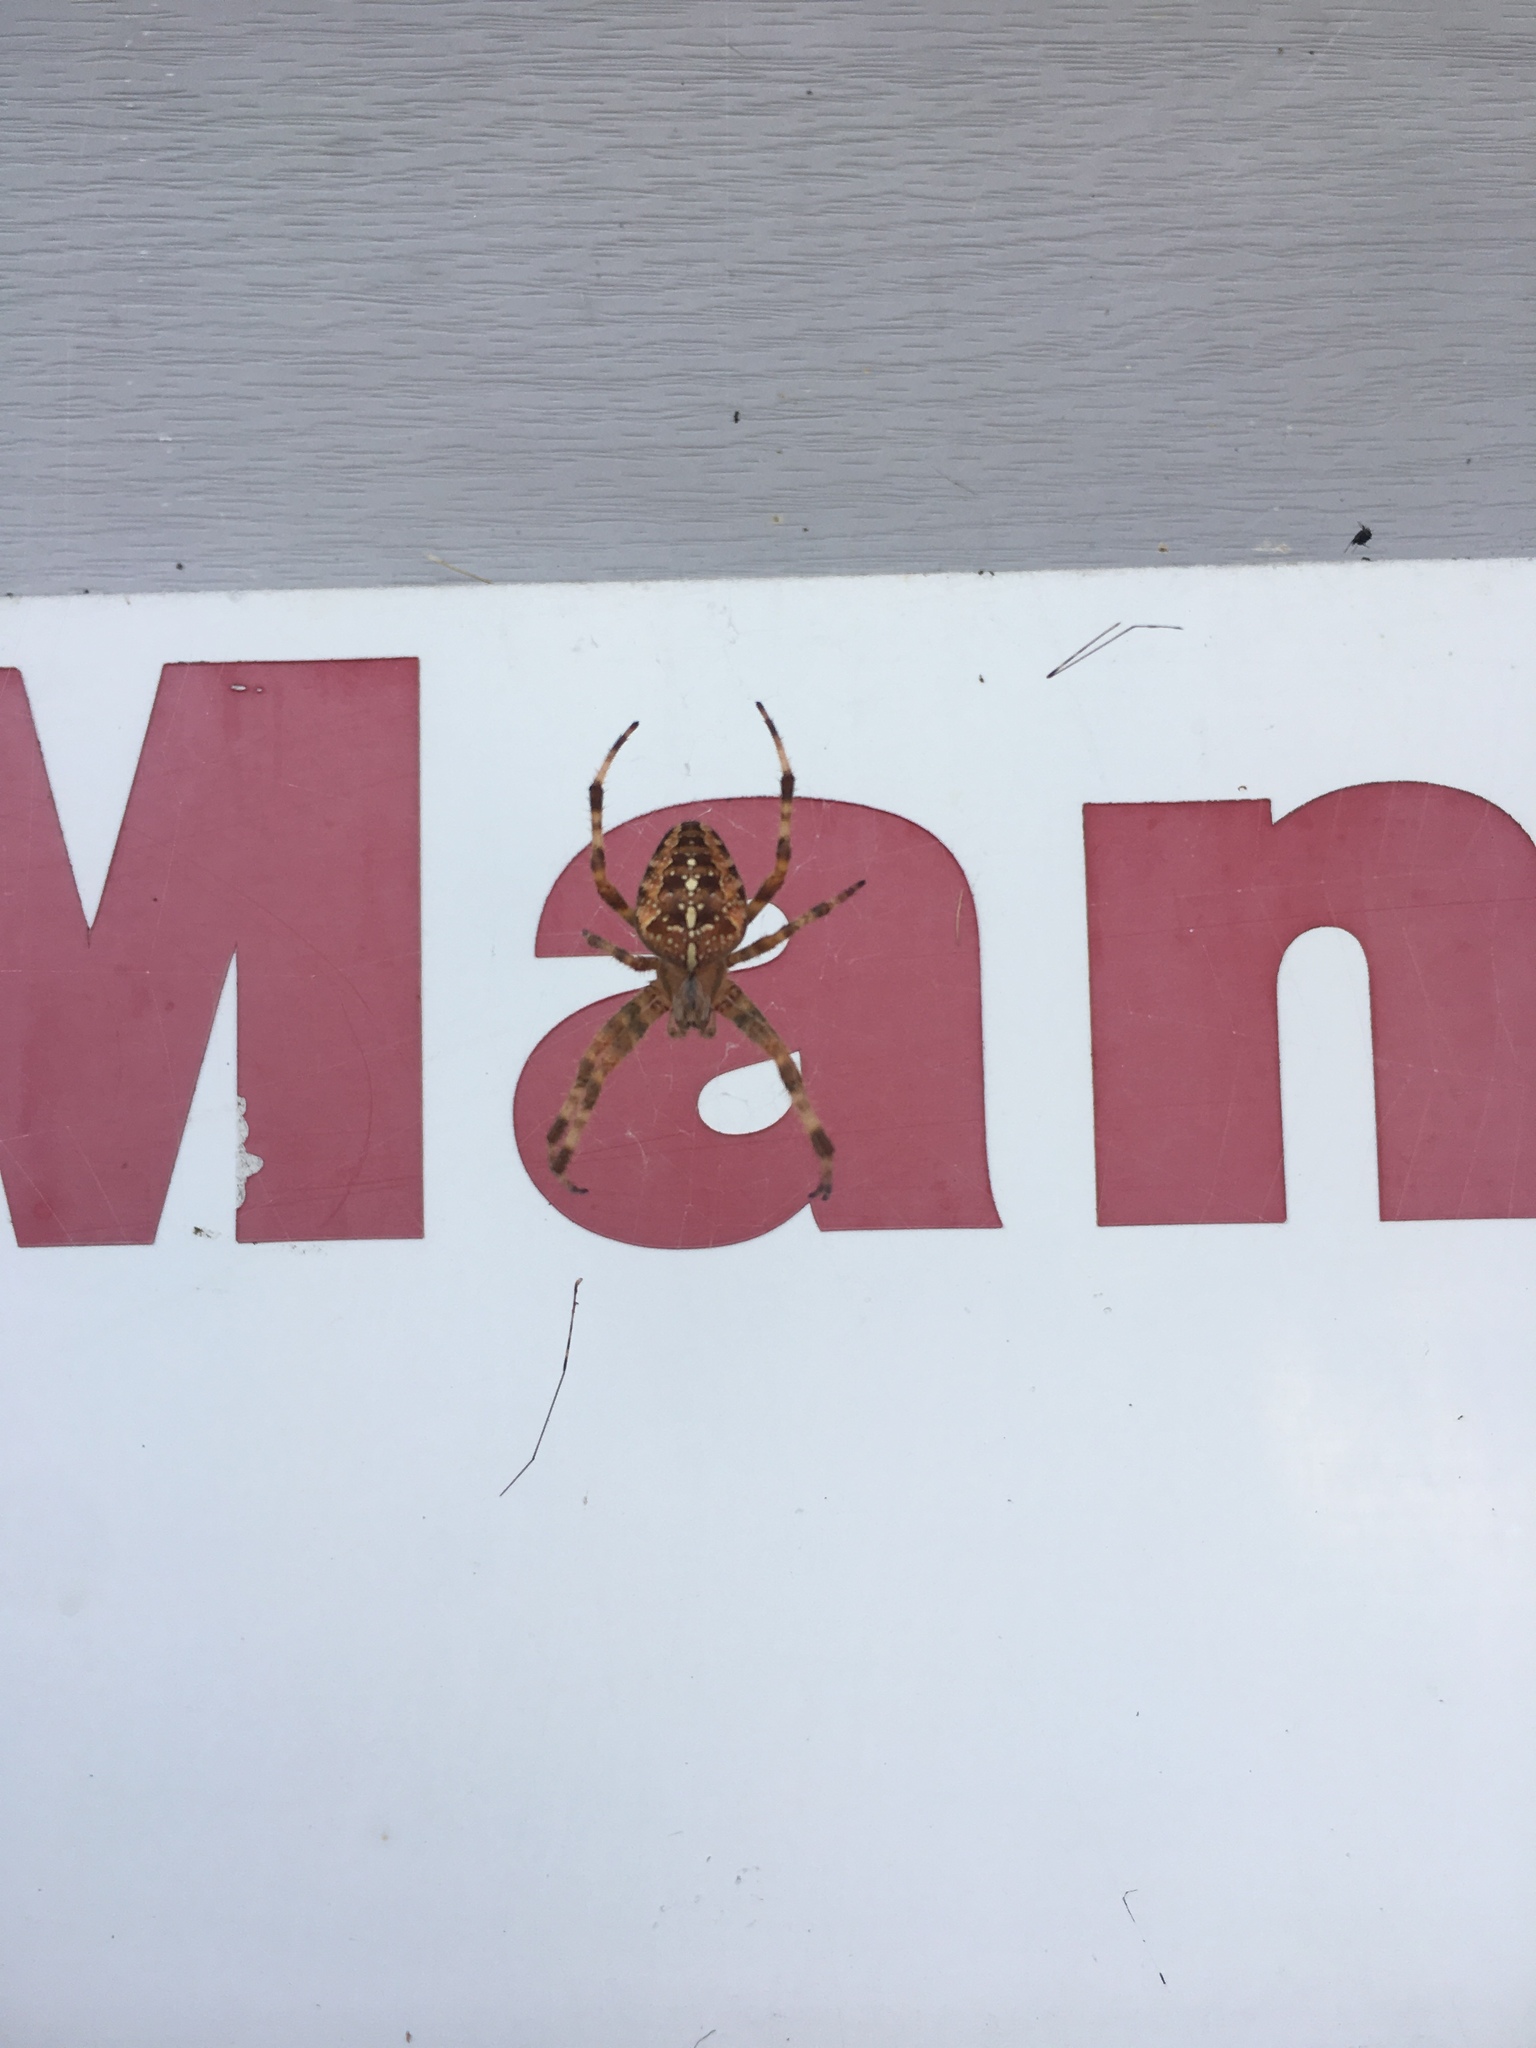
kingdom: Animalia
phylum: Arthropoda
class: Arachnida
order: Araneae
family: Araneidae
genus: Araneus
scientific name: Araneus diadematus
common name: Cross orbweaver
